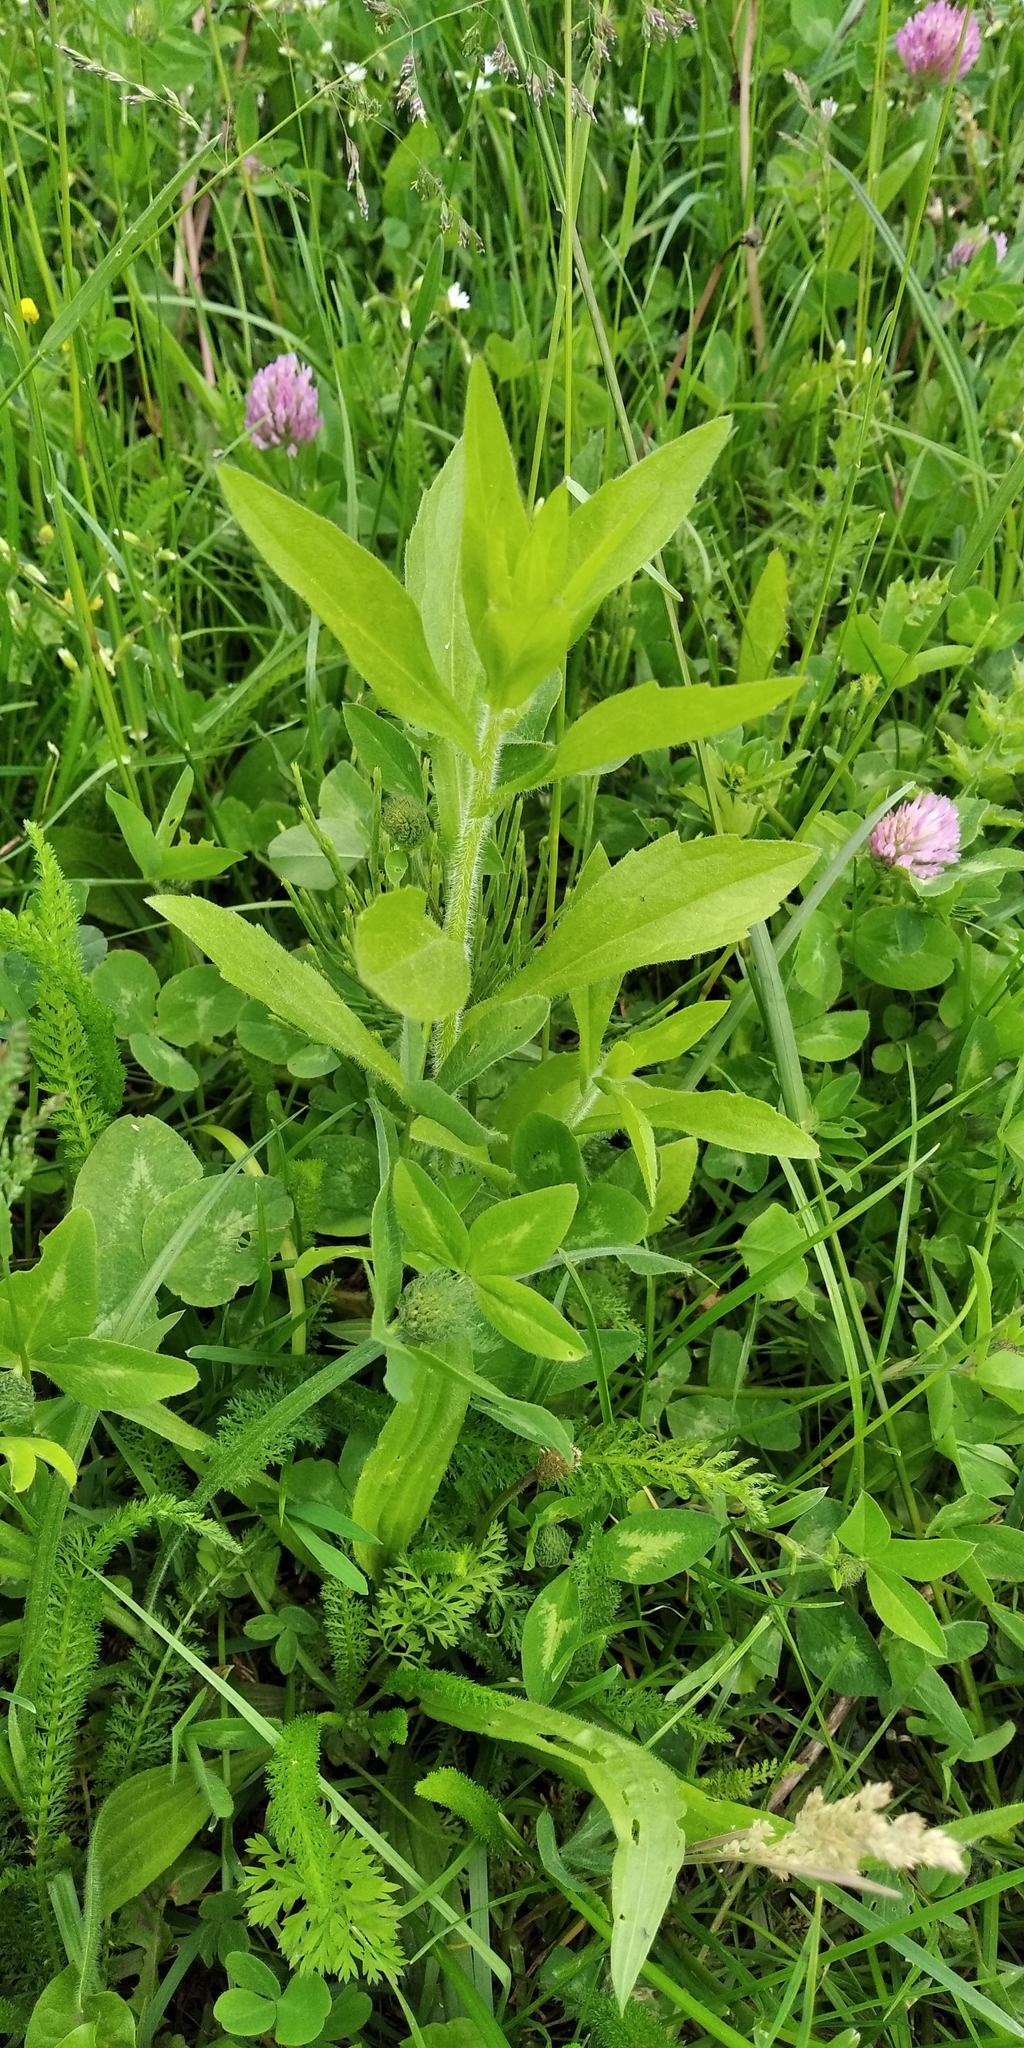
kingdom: Plantae
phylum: Tracheophyta
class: Magnoliopsida
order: Asterales
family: Asteraceae
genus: Erigeron
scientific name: Erigeron annuus
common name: Tall fleabane
